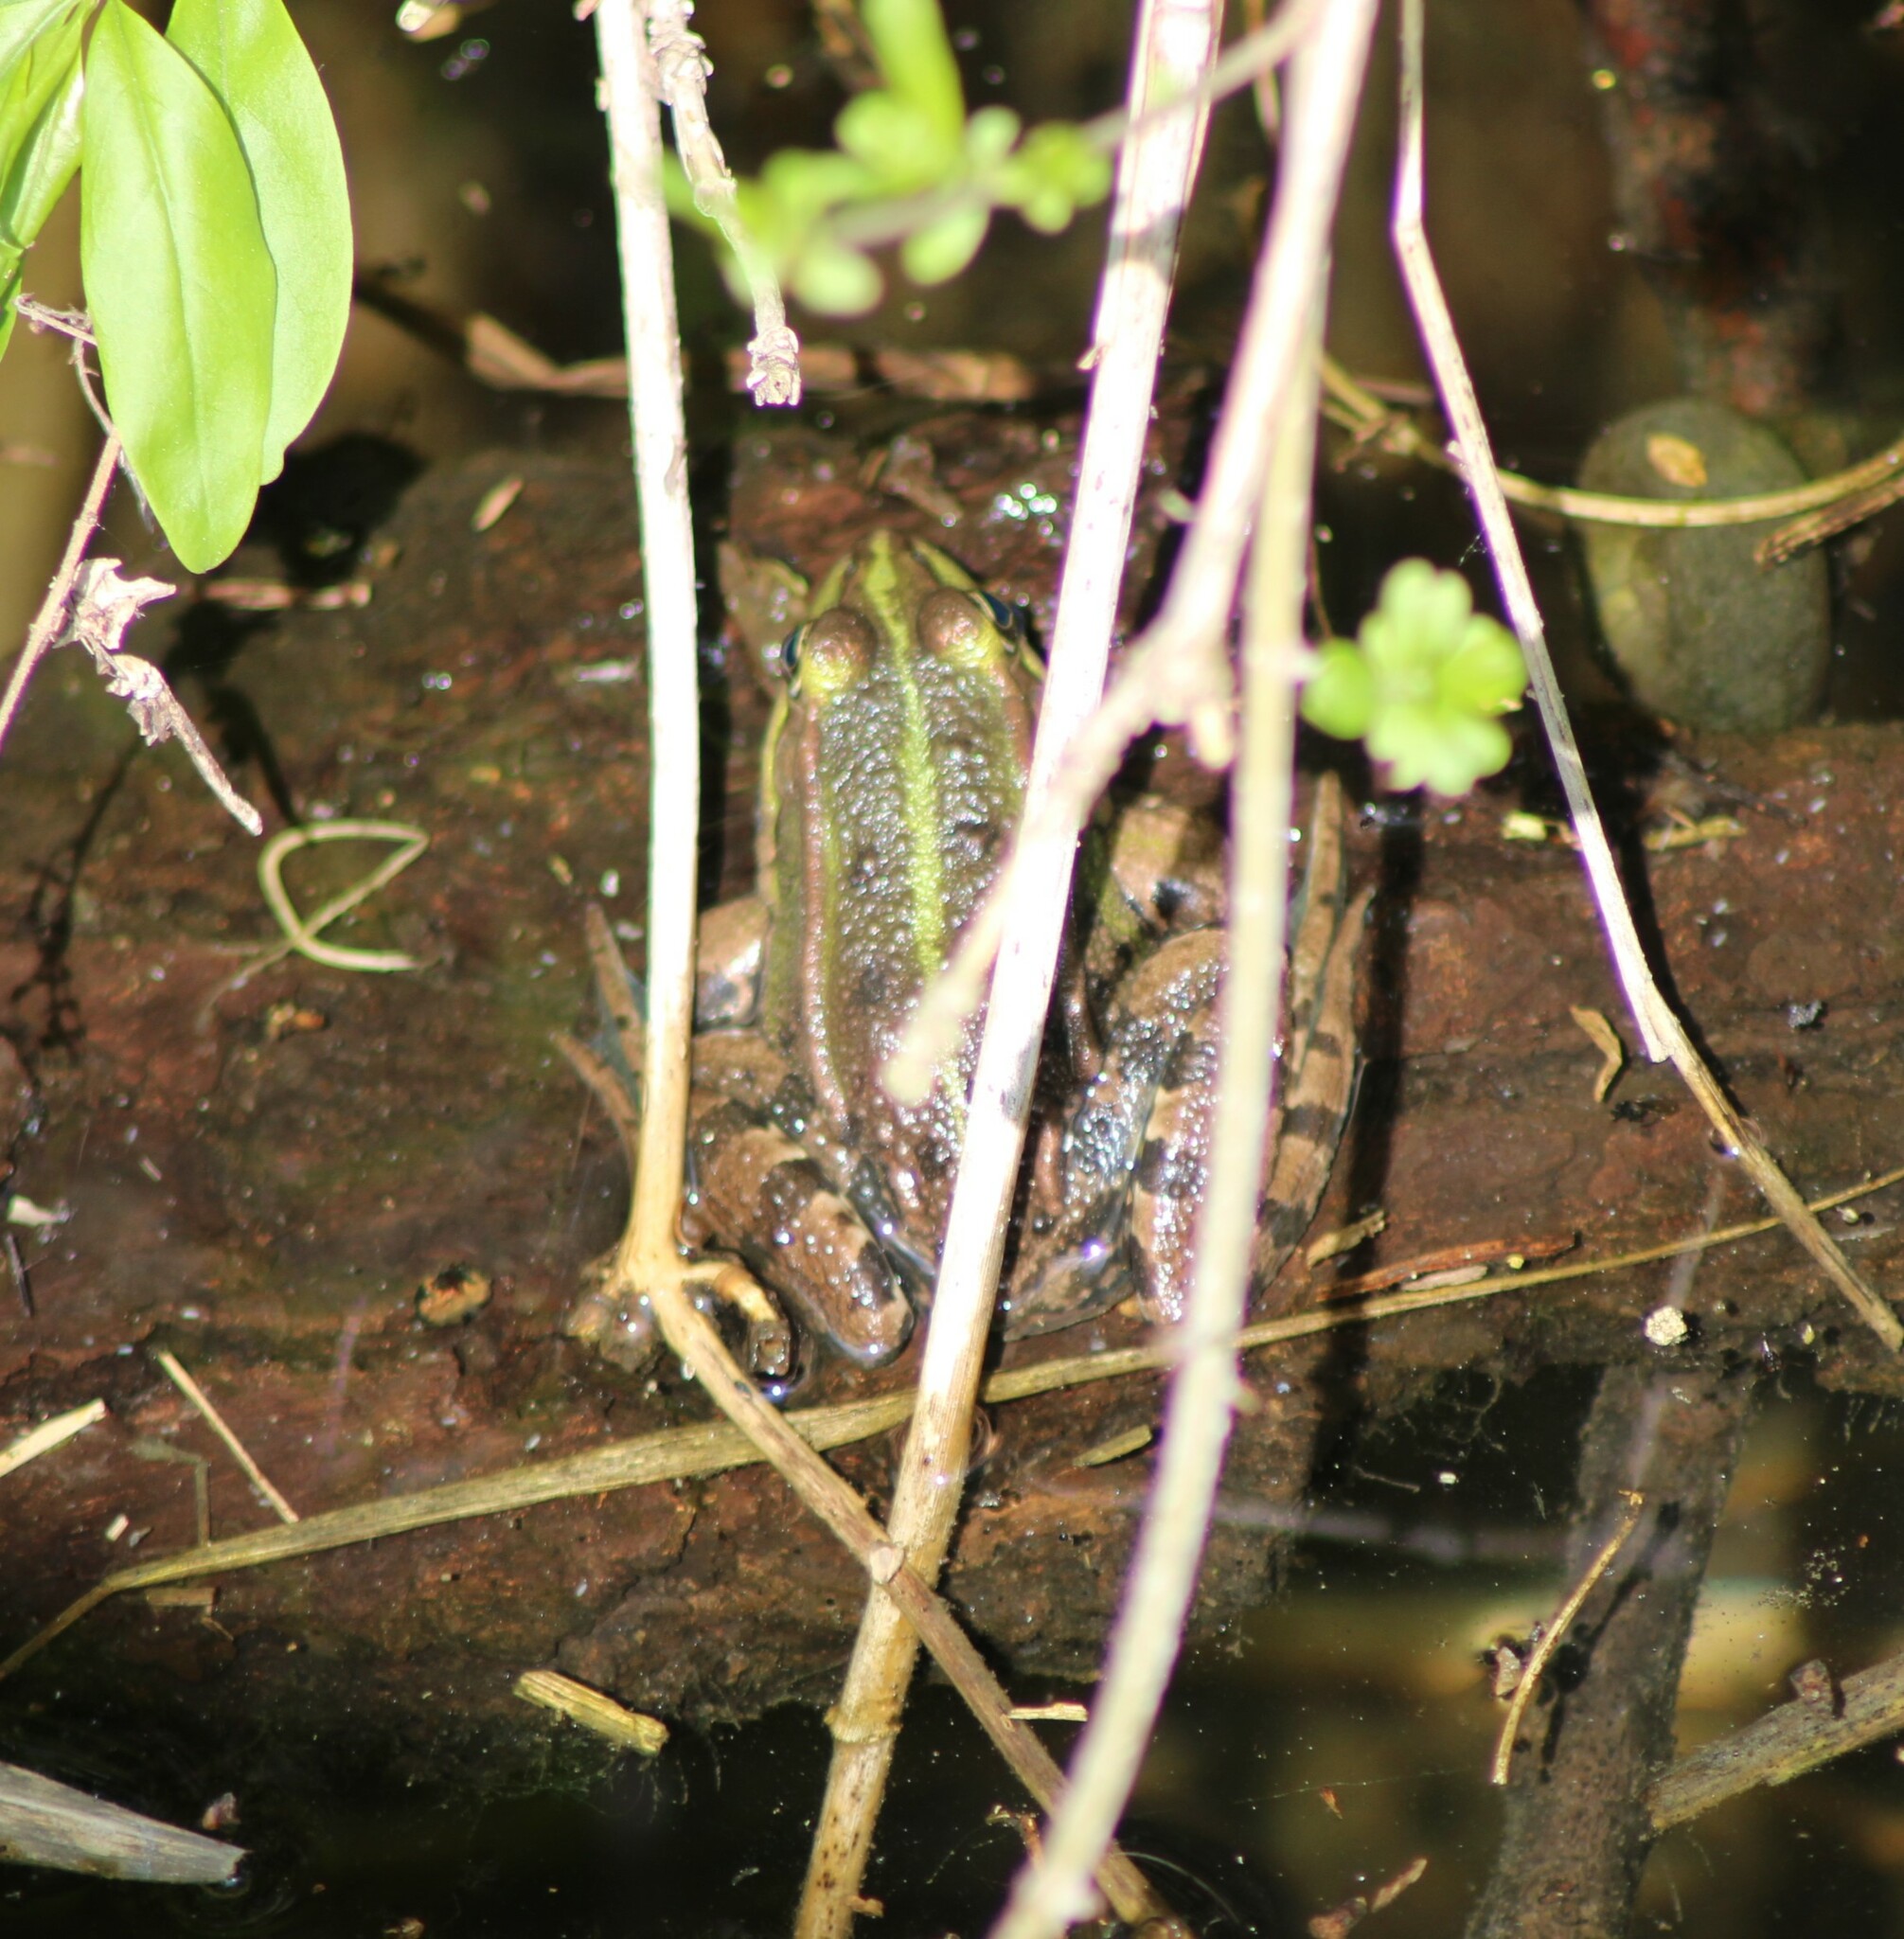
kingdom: Animalia
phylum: Chordata
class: Amphibia
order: Anura
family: Ranidae
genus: Pelophylax
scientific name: Pelophylax
